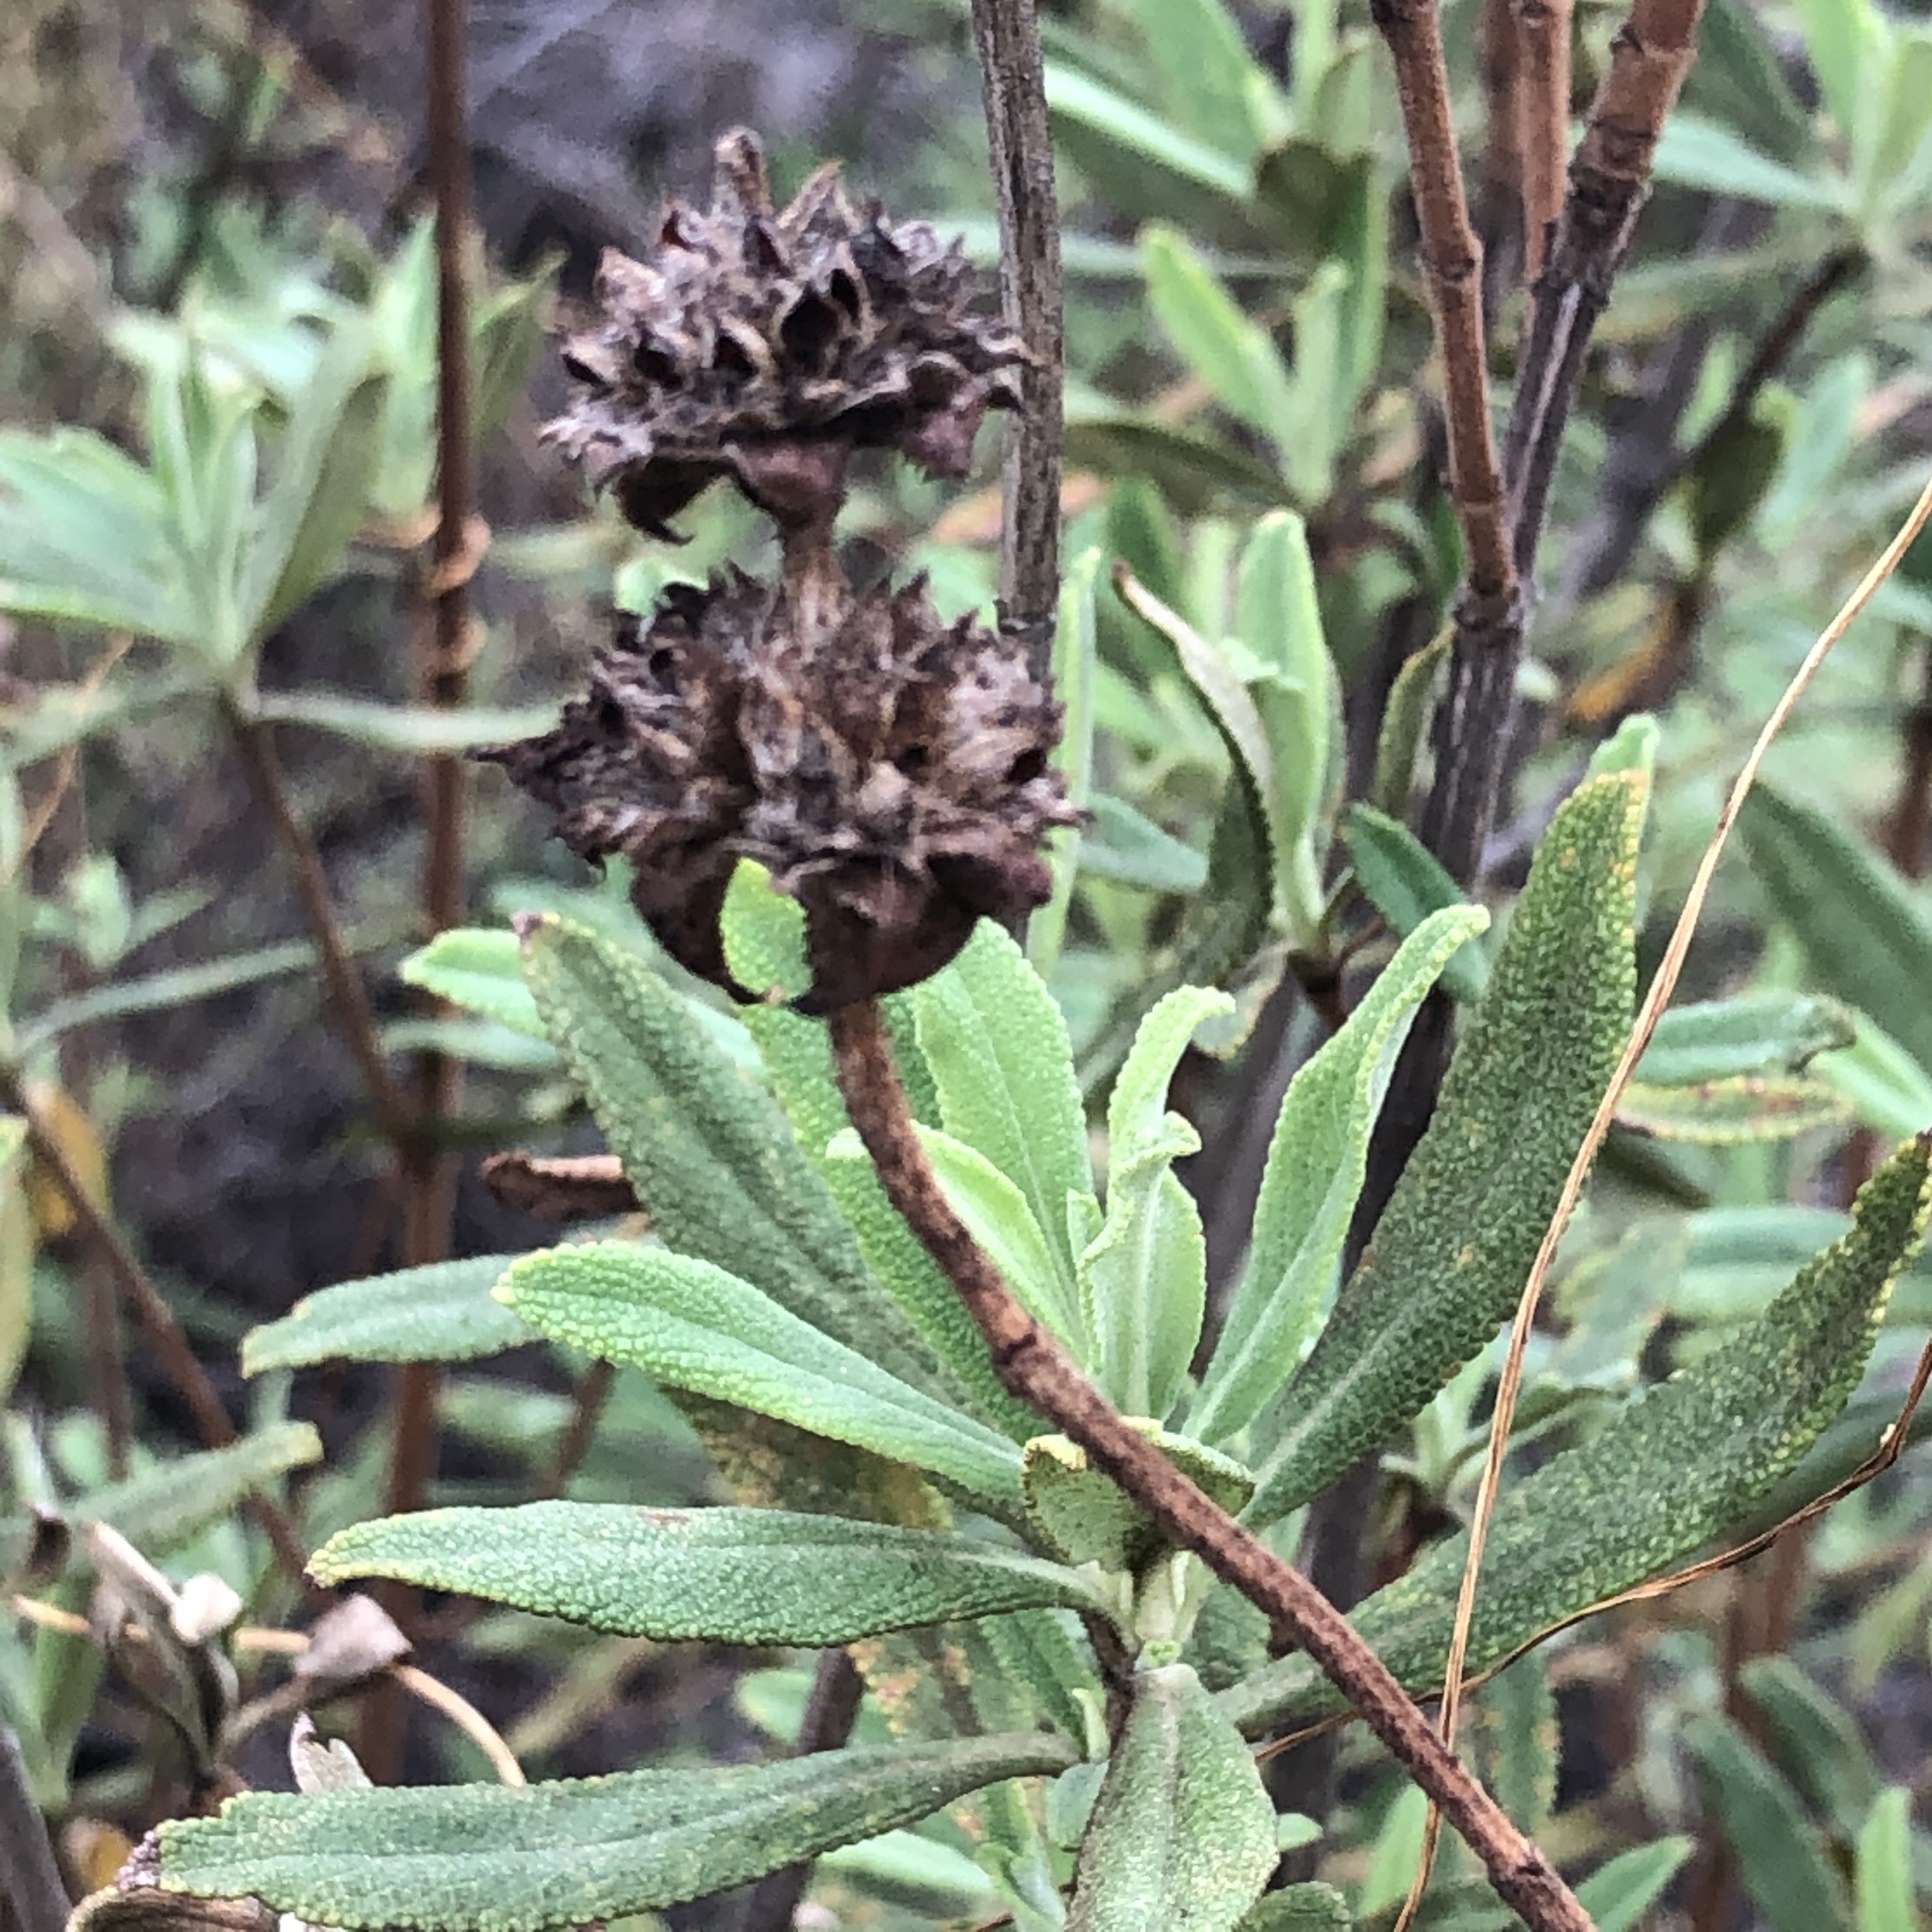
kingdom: Plantae
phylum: Tracheophyta
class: Magnoliopsida
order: Lamiales
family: Lamiaceae
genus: Salvia
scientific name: Salvia mellifera
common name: Black sage
